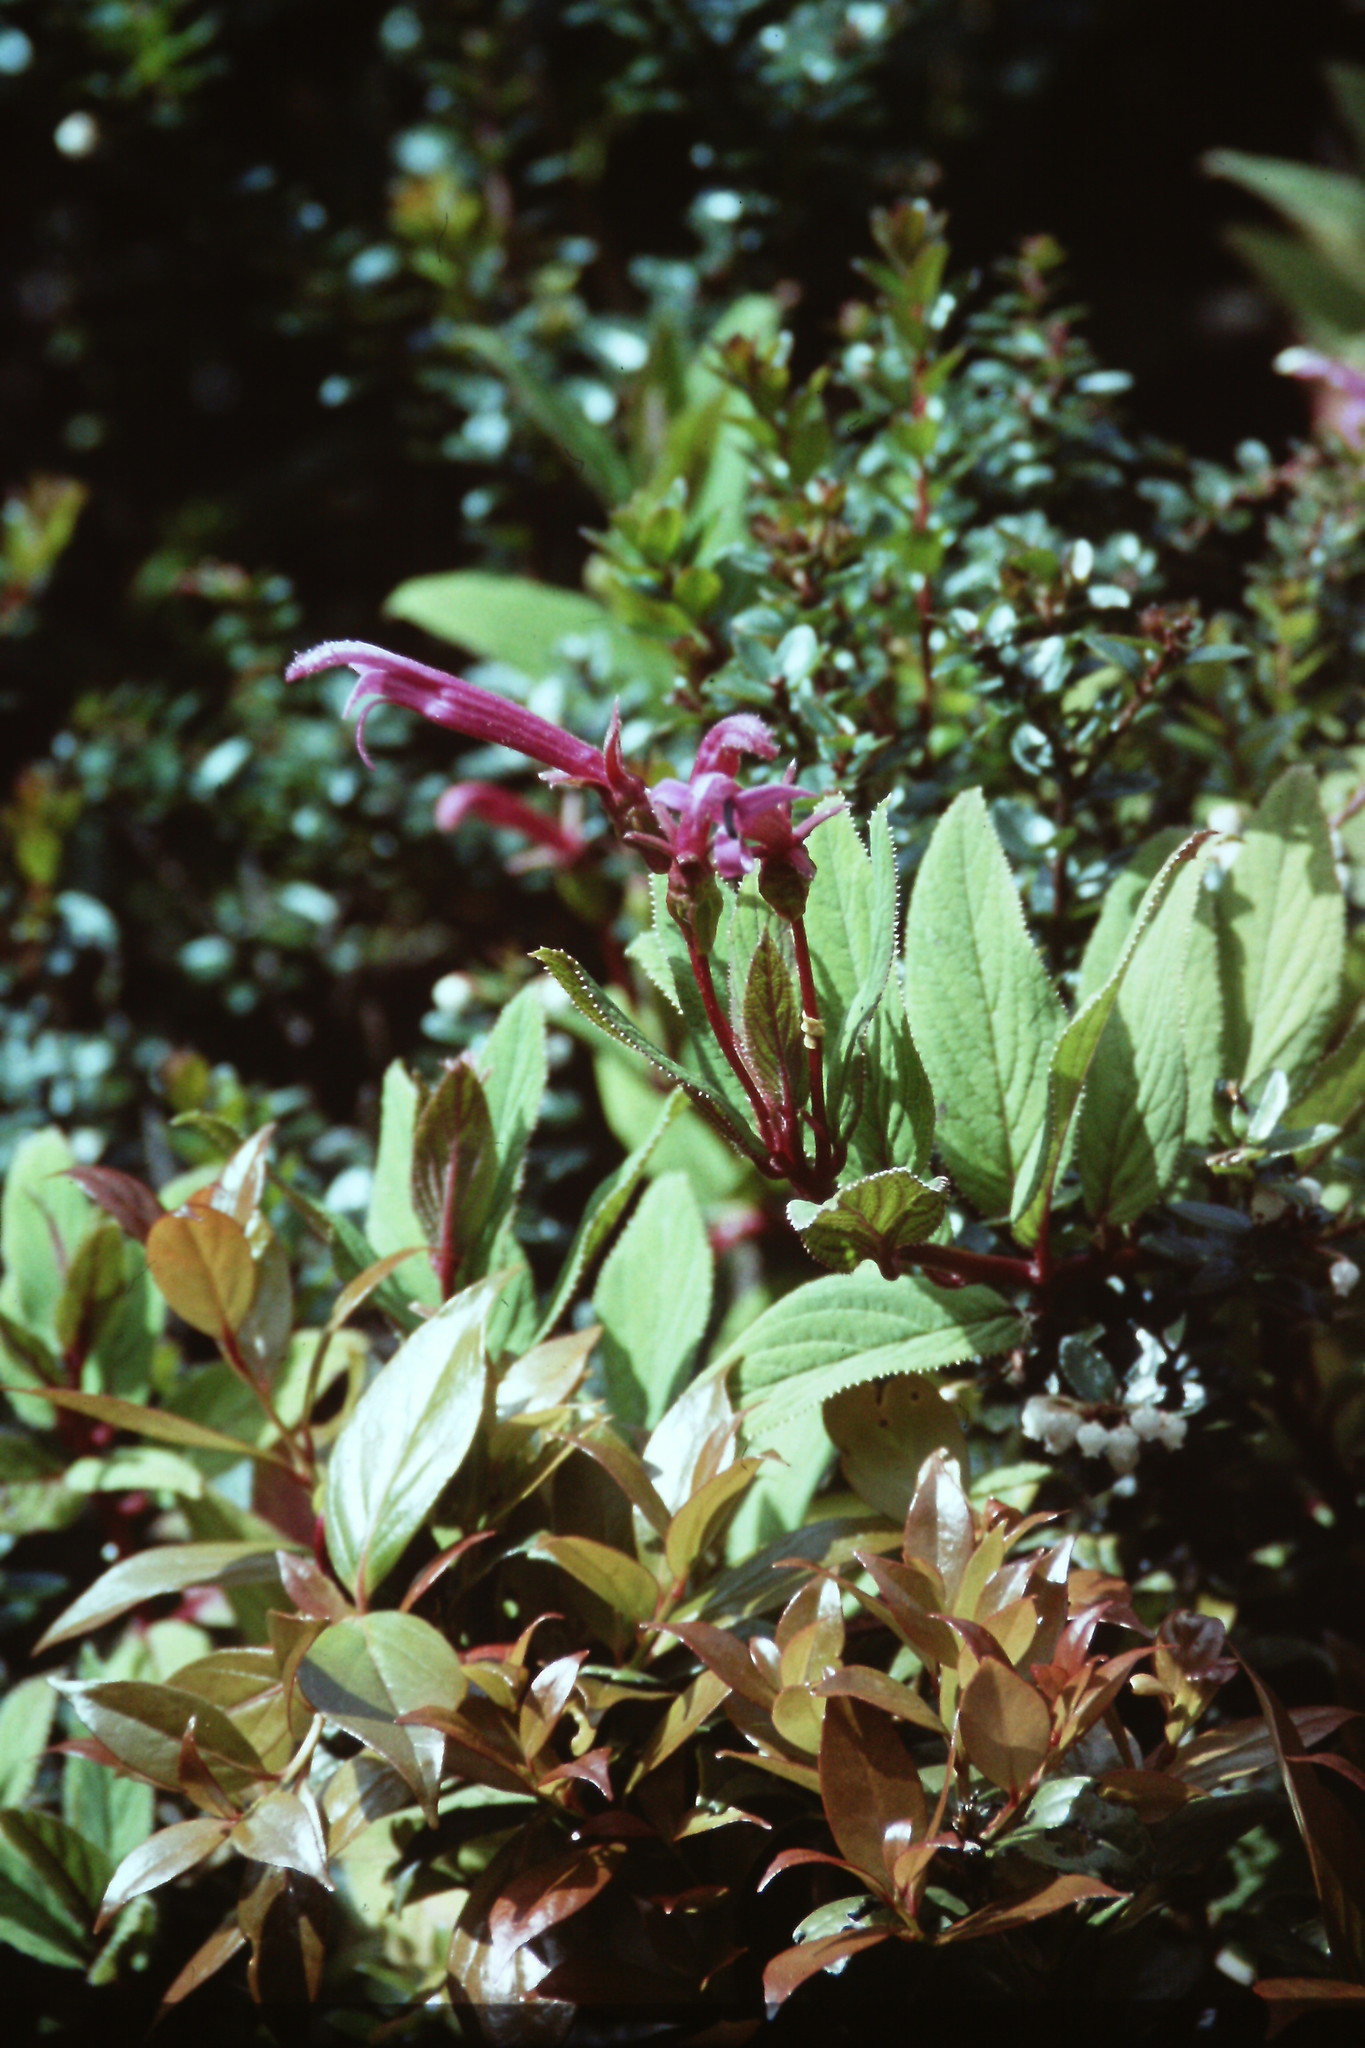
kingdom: Plantae
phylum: Tracheophyta
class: Magnoliopsida
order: Asterales
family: Campanulaceae
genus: Centropogon
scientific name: Centropogon gutierrezii
